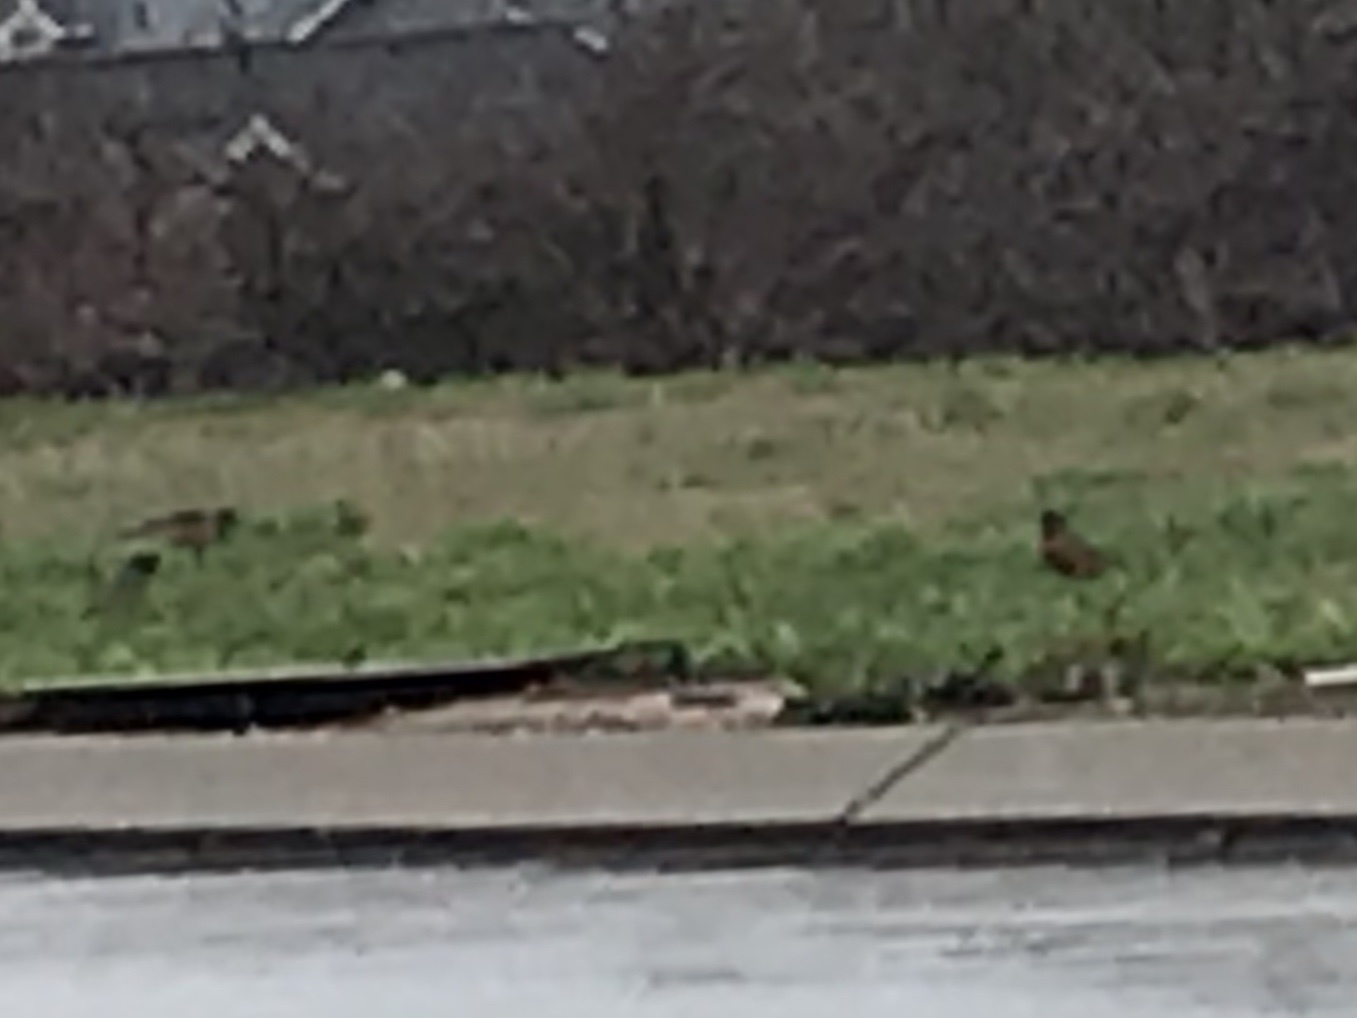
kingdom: Animalia
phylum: Chordata
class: Aves
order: Passeriformes
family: Turdidae
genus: Turdus
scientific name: Turdus migratorius
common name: American robin
